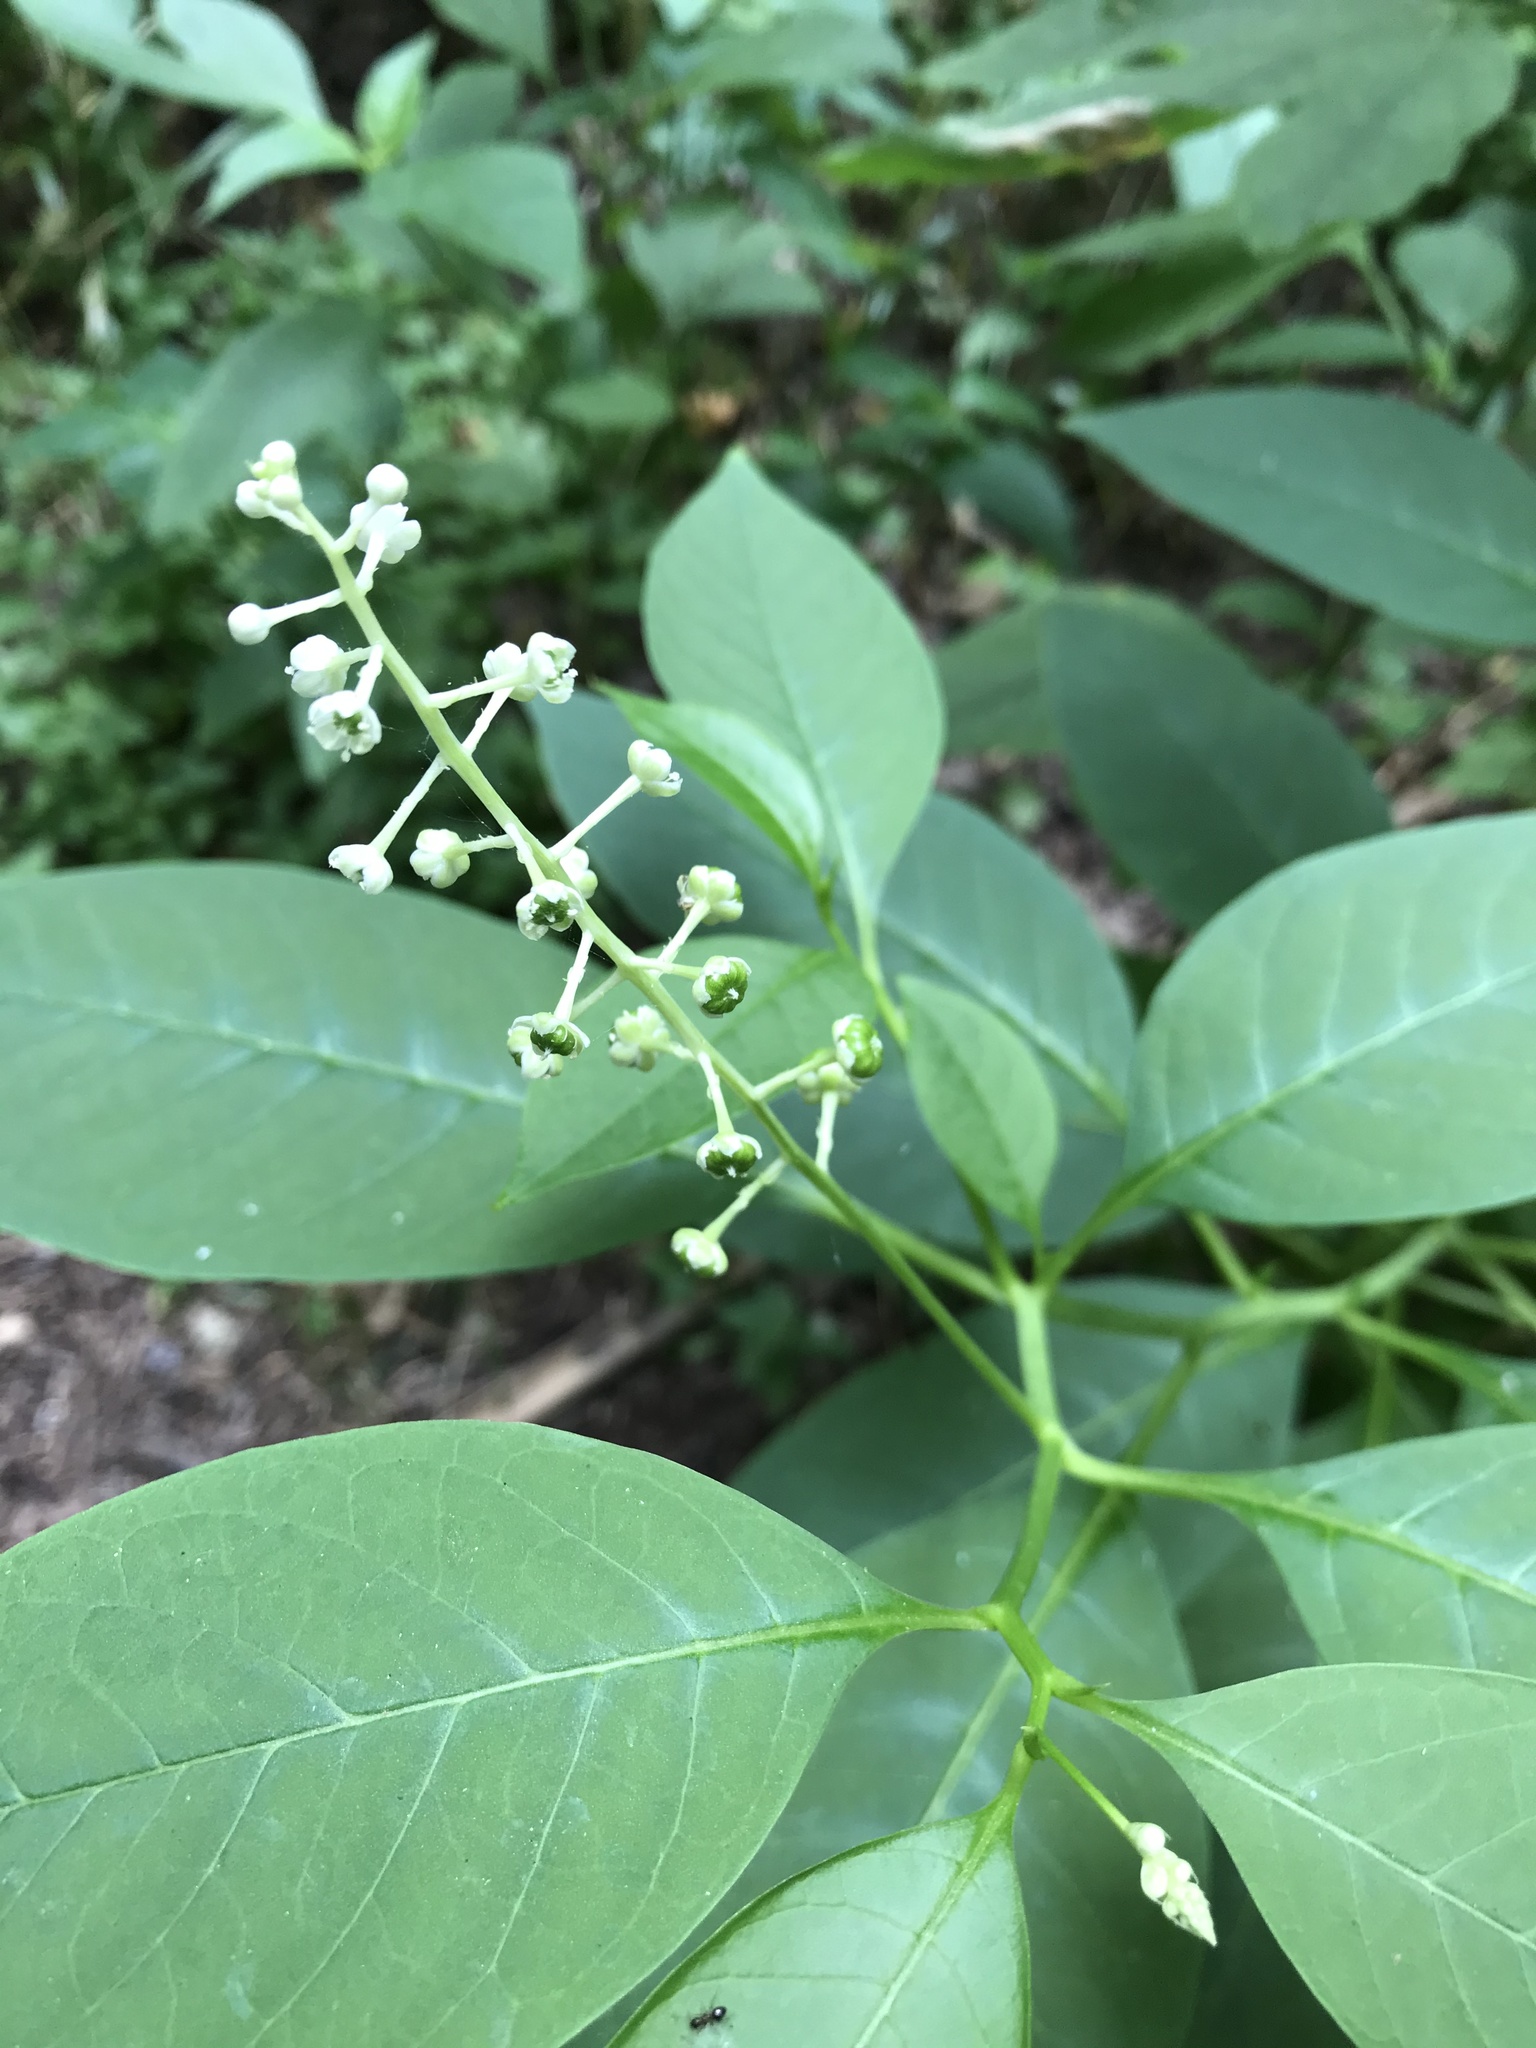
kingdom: Plantae
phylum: Tracheophyta
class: Magnoliopsida
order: Caryophyllales
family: Phytolaccaceae
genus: Phytolacca
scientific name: Phytolacca americana
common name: American pokeweed
